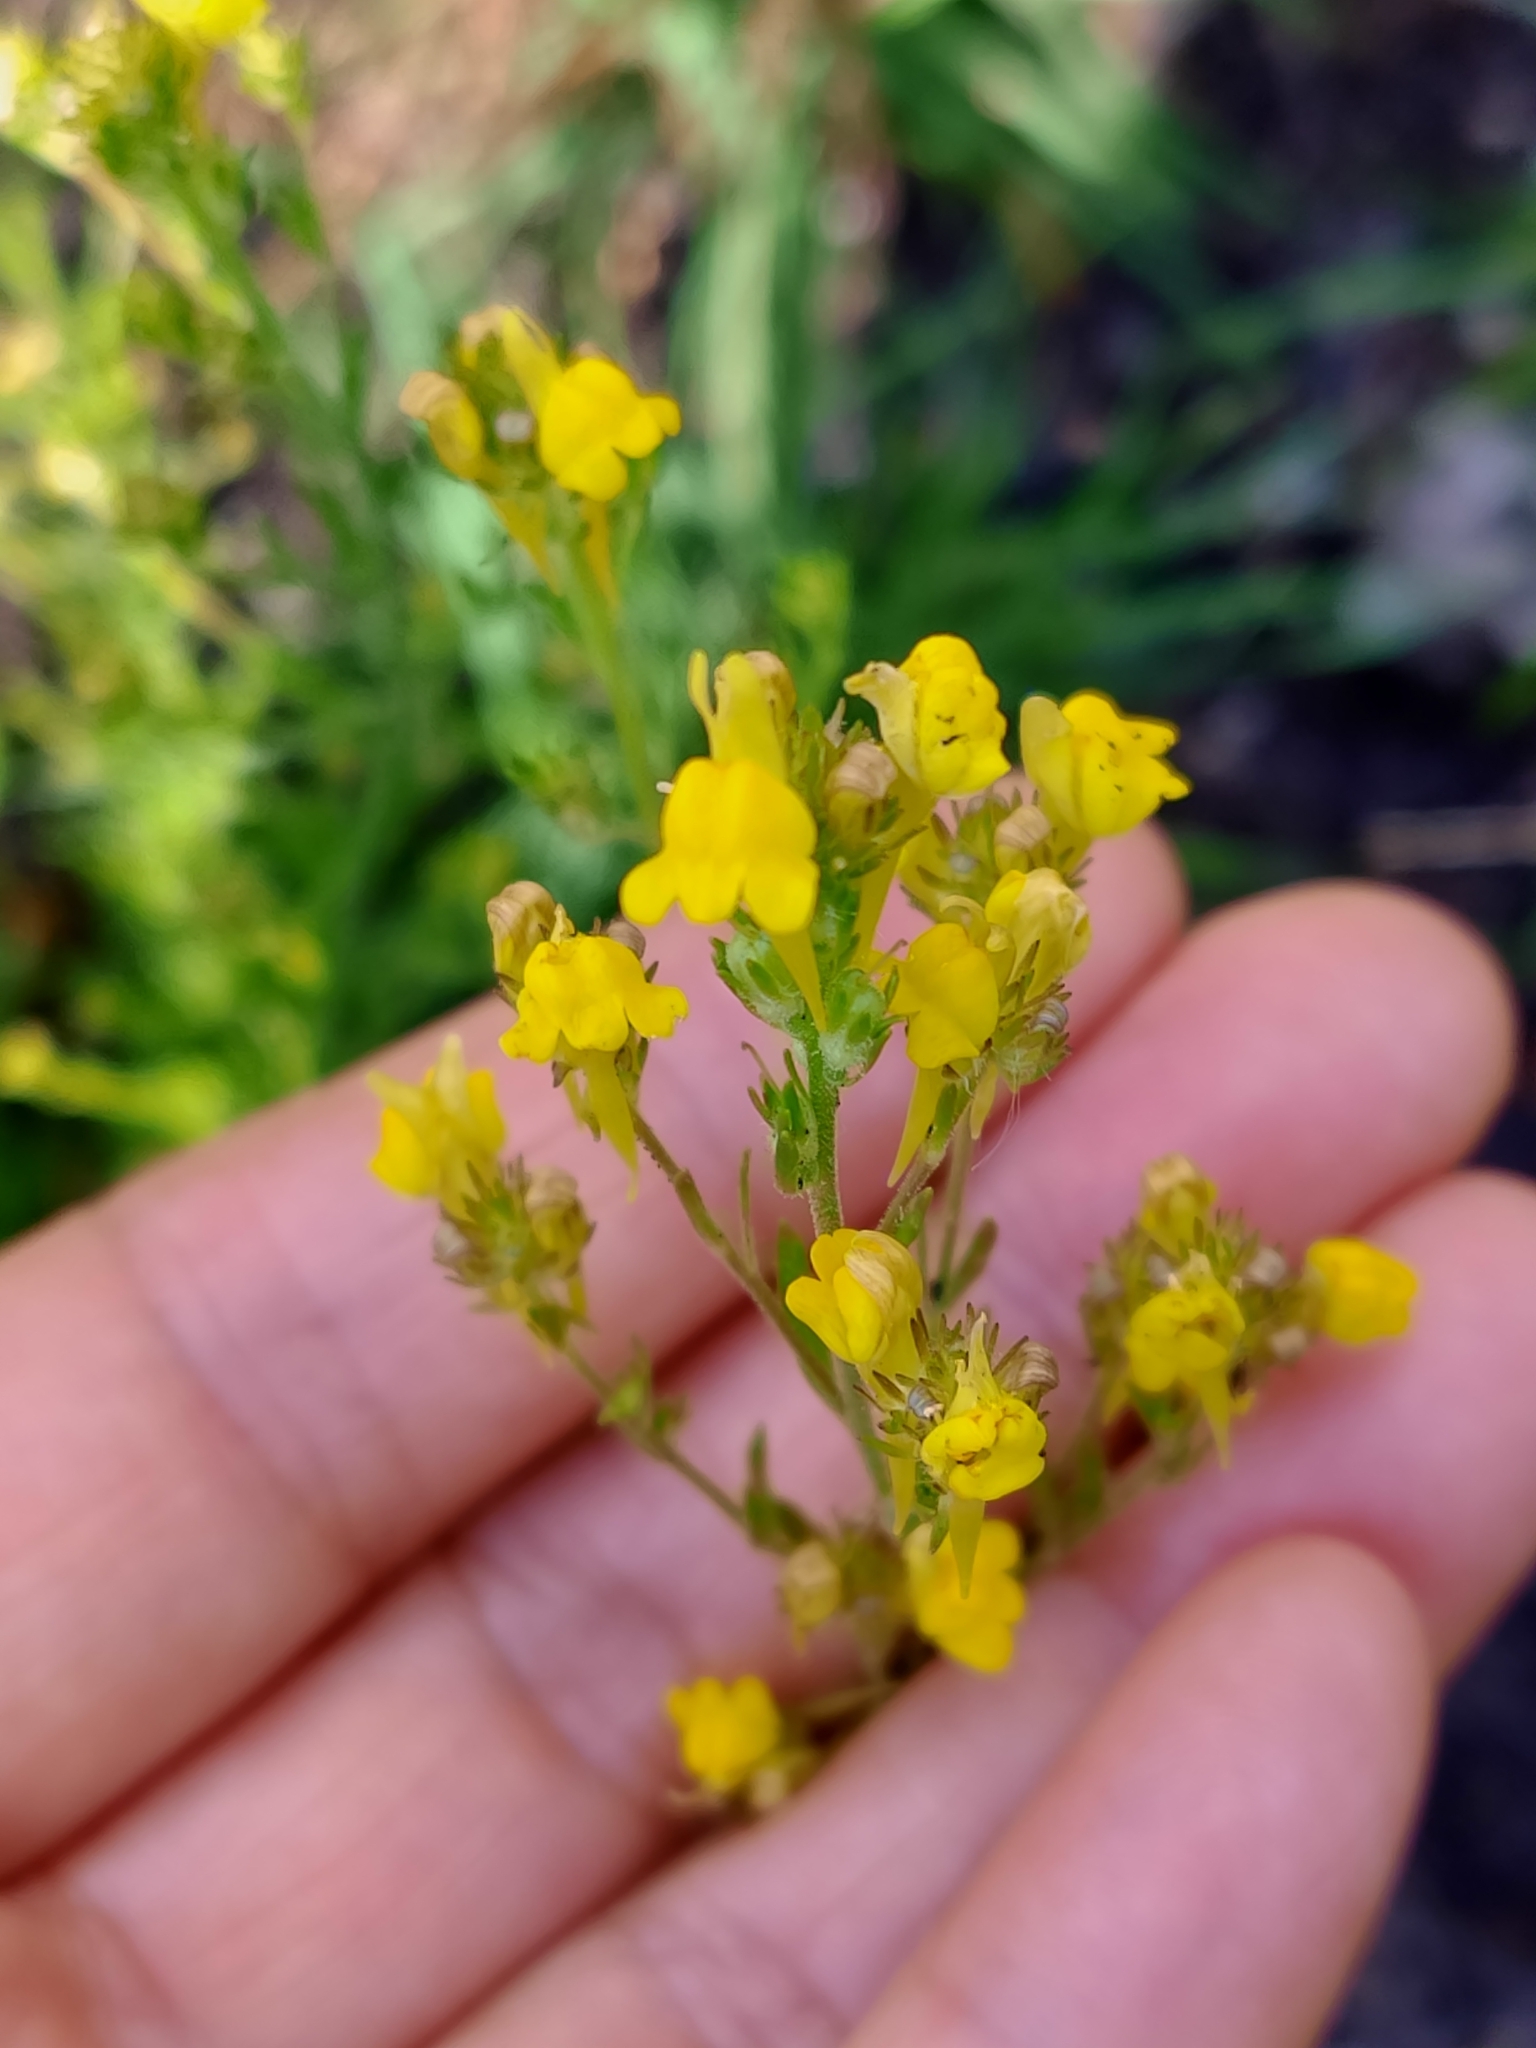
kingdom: Plantae
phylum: Tracheophyta
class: Magnoliopsida
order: Lamiales
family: Plantaginaceae
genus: Linaria
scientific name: Linaria saxatilis
